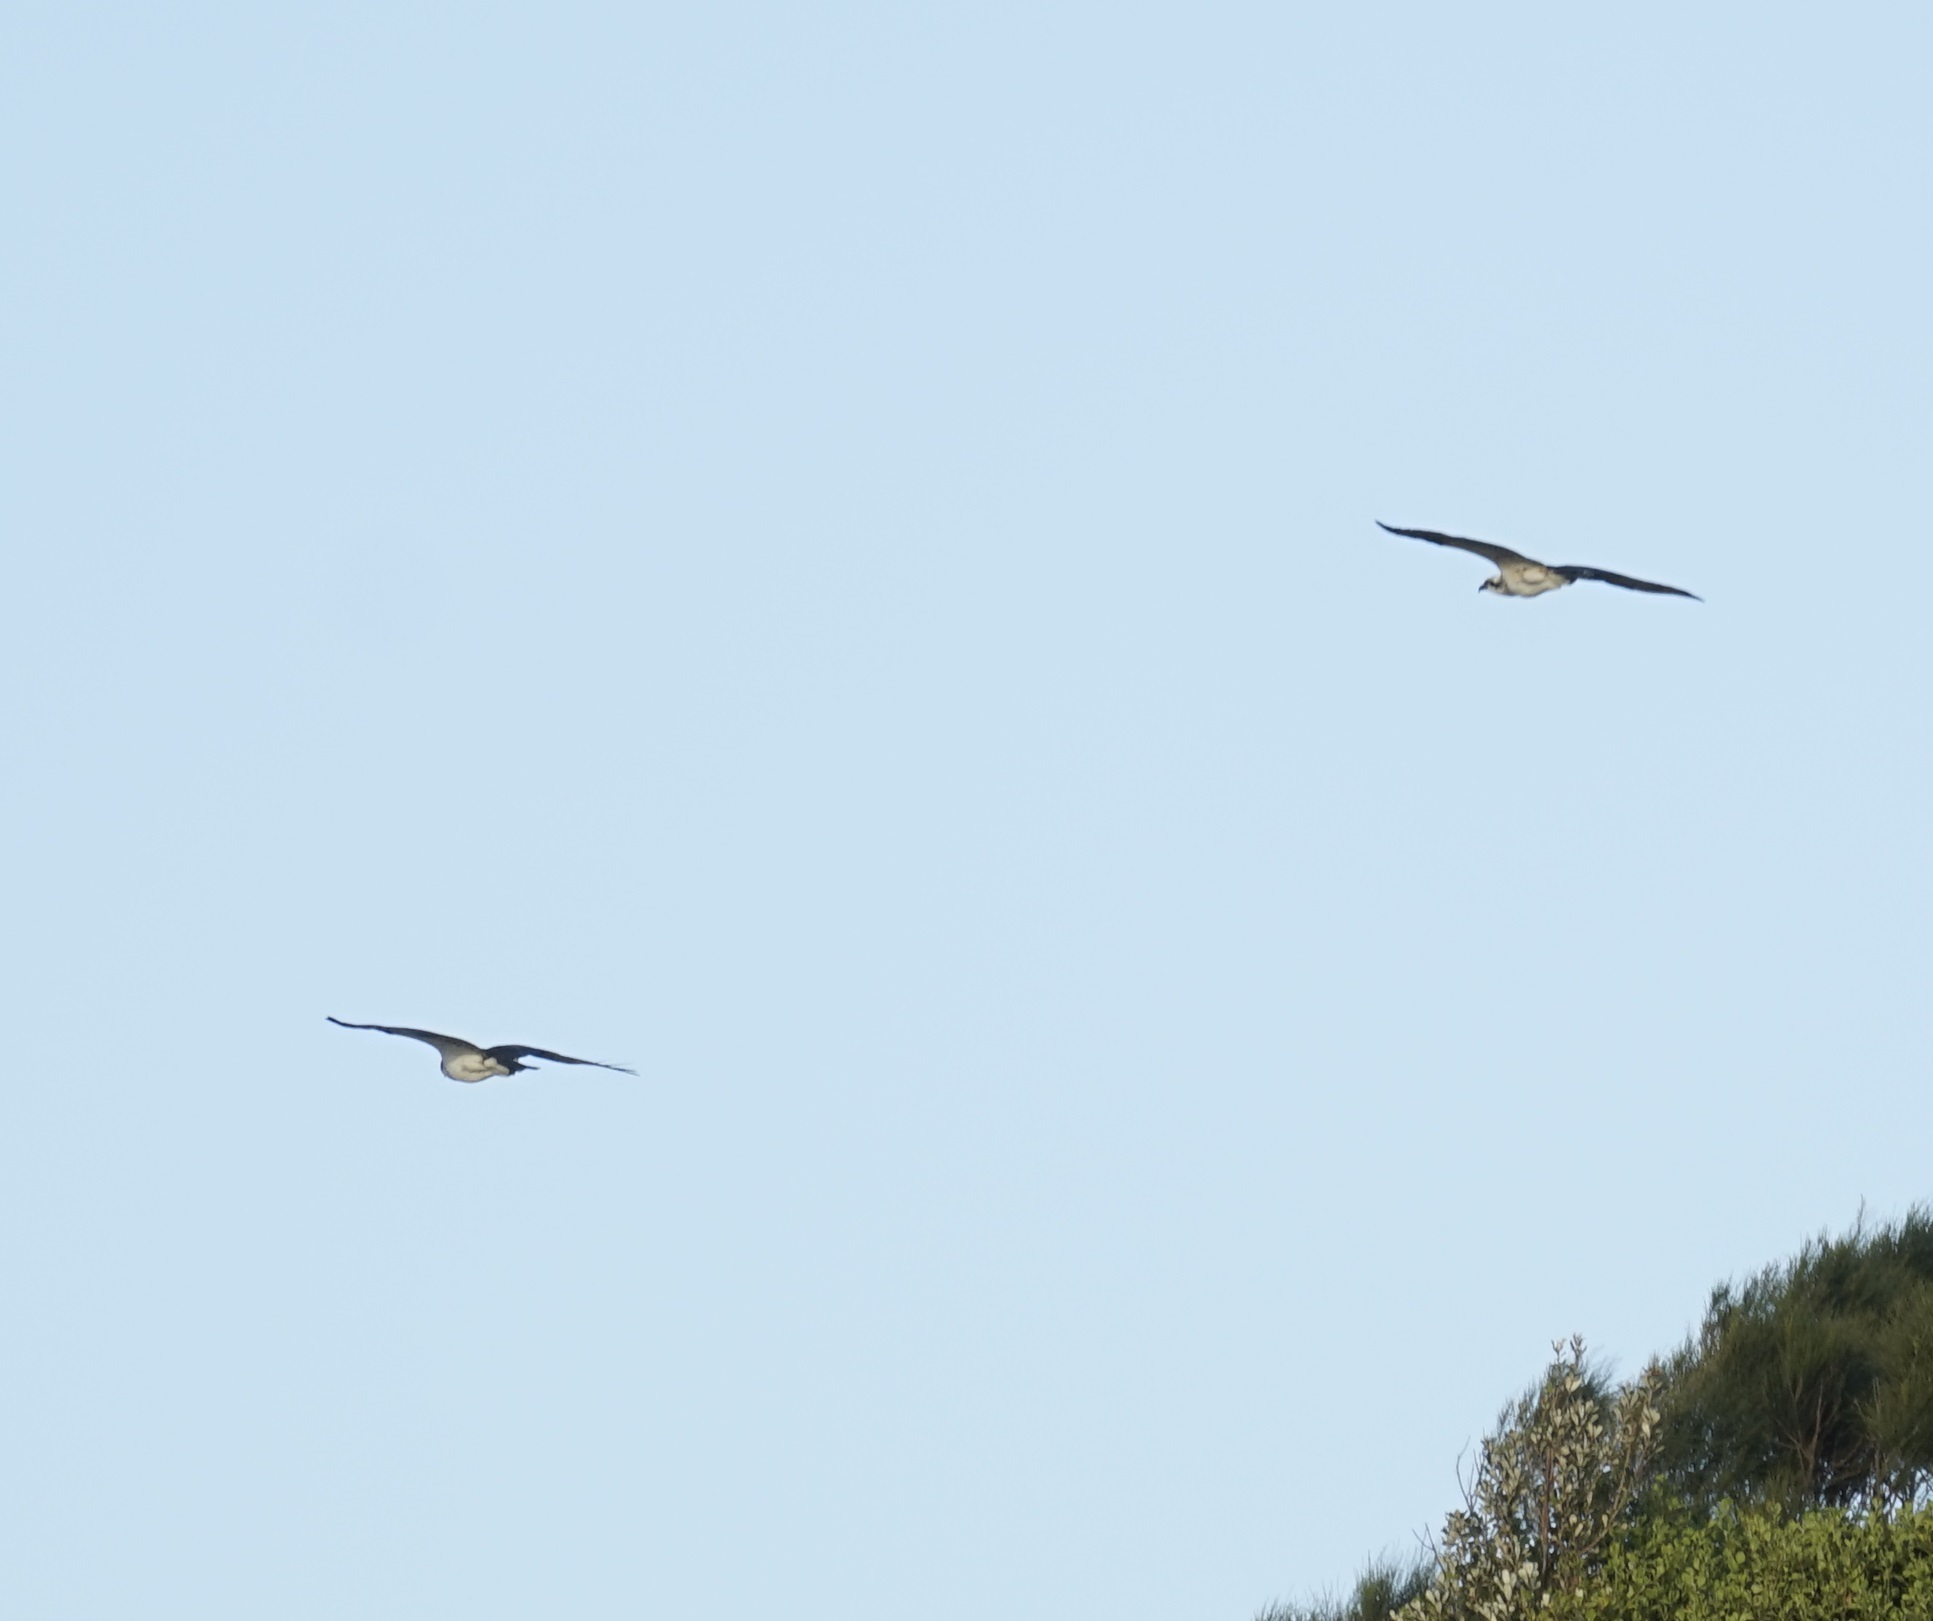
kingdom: Animalia
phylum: Chordata
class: Aves
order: Accipitriformes
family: Pandionidae
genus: Pandion
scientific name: Pandion cristatus
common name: Eastern osprey
